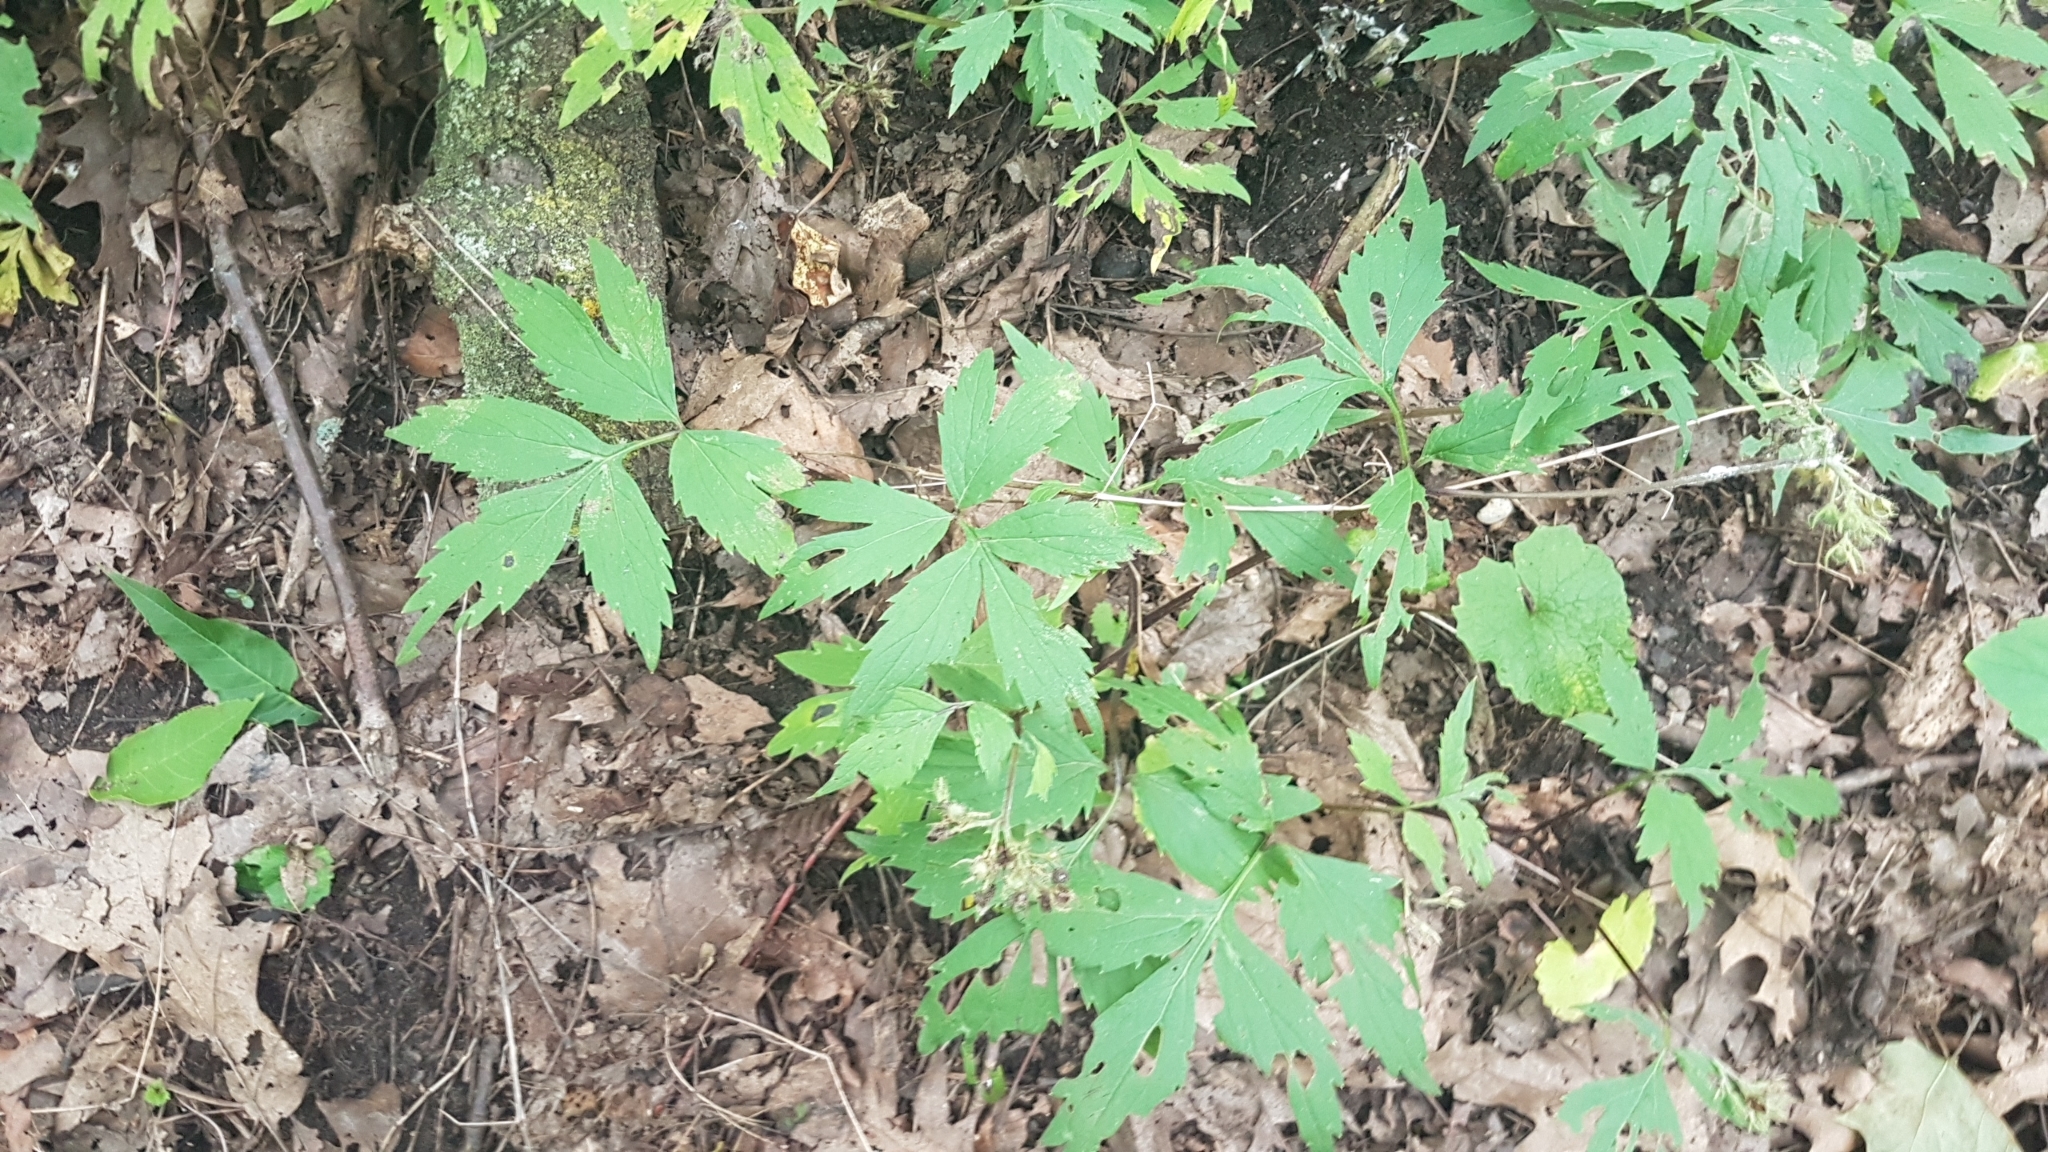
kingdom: Plantae
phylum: Tracheophyta
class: Magnoliopsida
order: Boraginales
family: Hydrophyllaceae
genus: Hydrophyllum
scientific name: Hydrophyllum virginianum
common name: Virginia waterleaf
